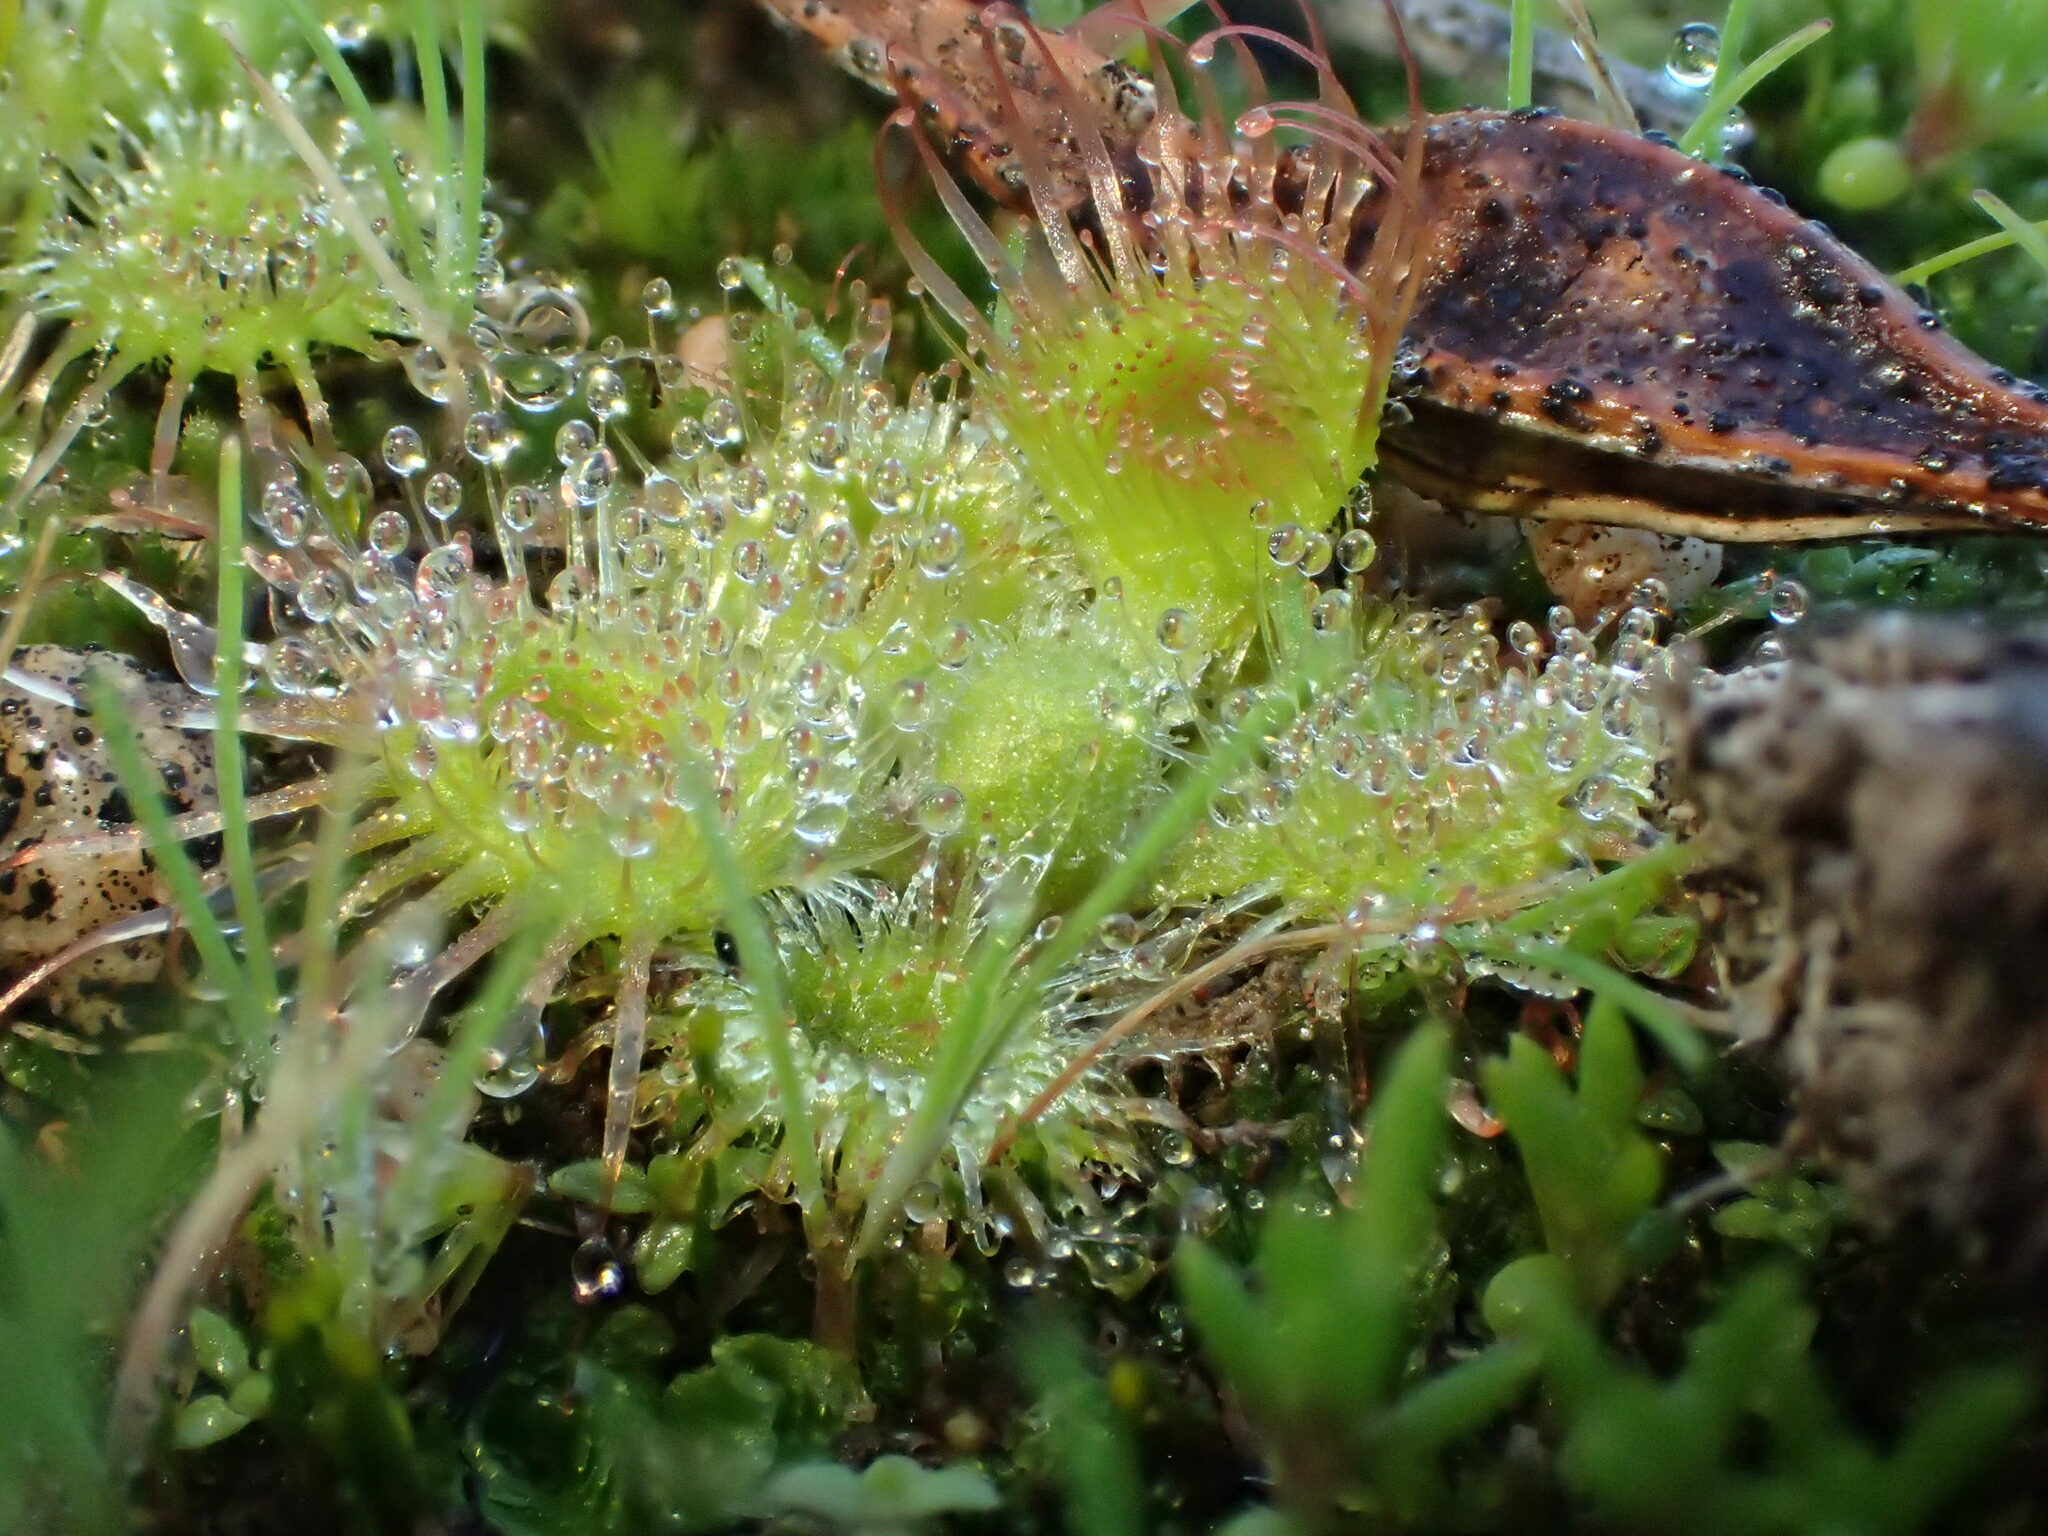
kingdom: Plantae
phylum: Tracheophyta
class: Magnoliopsida
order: Caryophyllales
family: Droseraceae
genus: Drosera
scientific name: Drosera glanduligera
